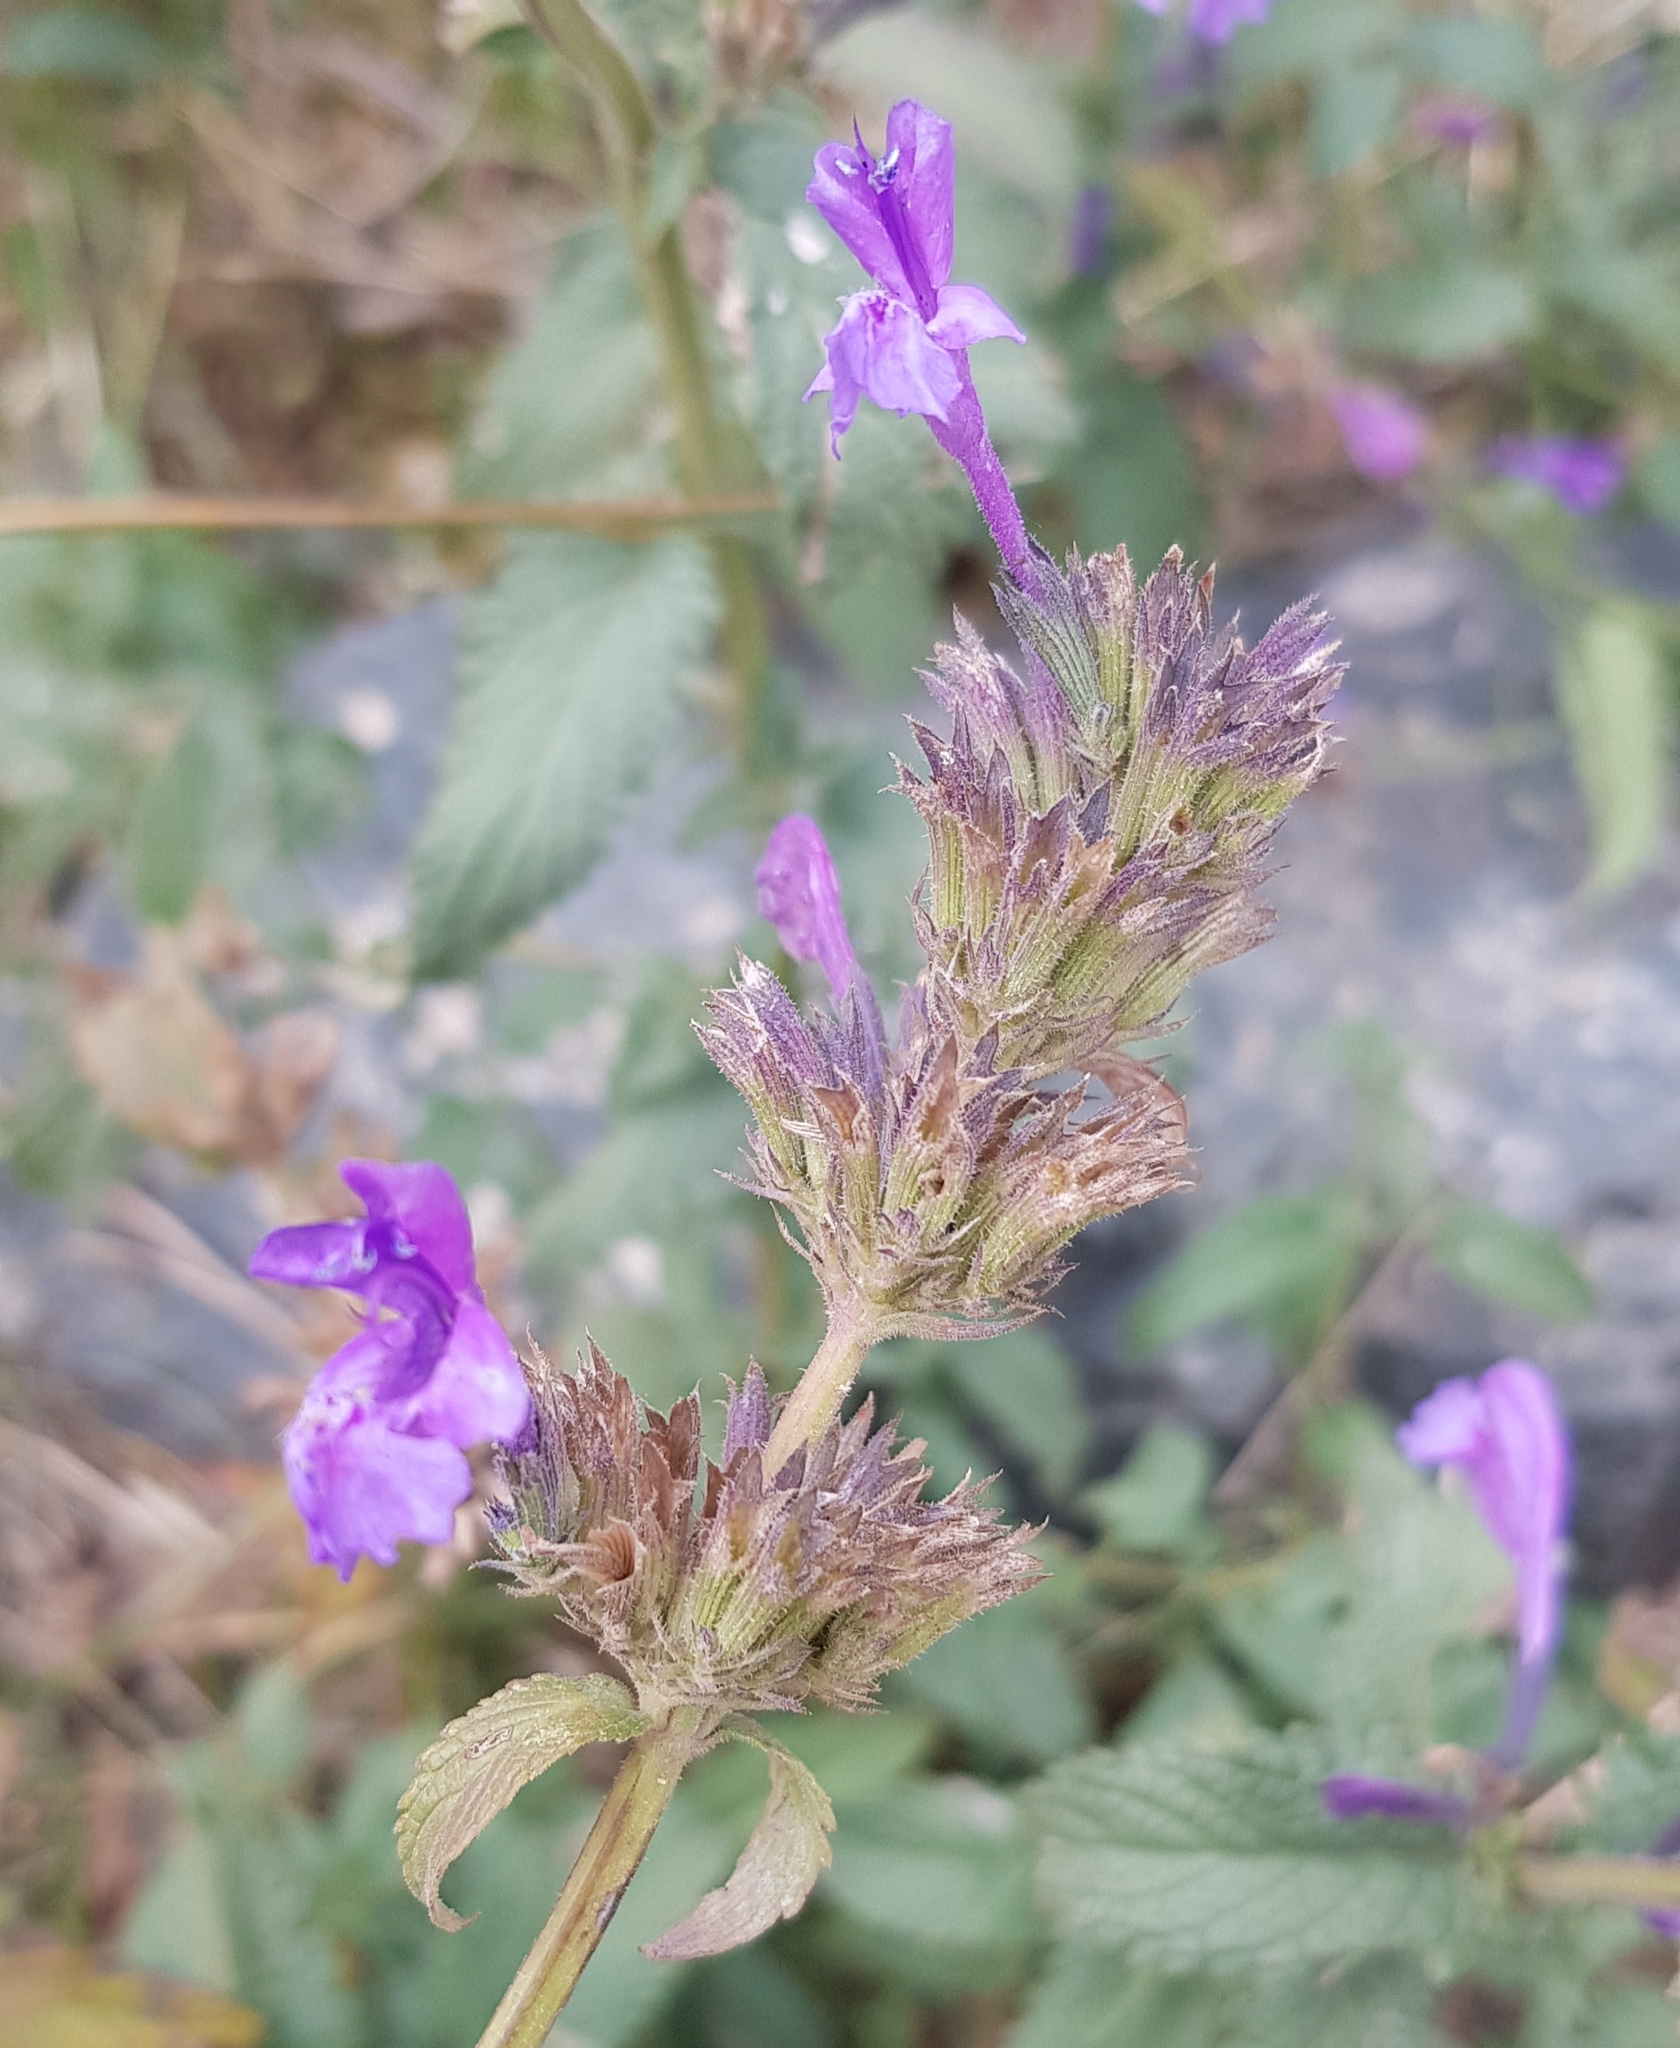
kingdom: Plantae
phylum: Tracheophyta
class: Magnoliopsida
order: Lamiales
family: Lamiaceae
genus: Nepeta
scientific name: Nepeta sibirica
